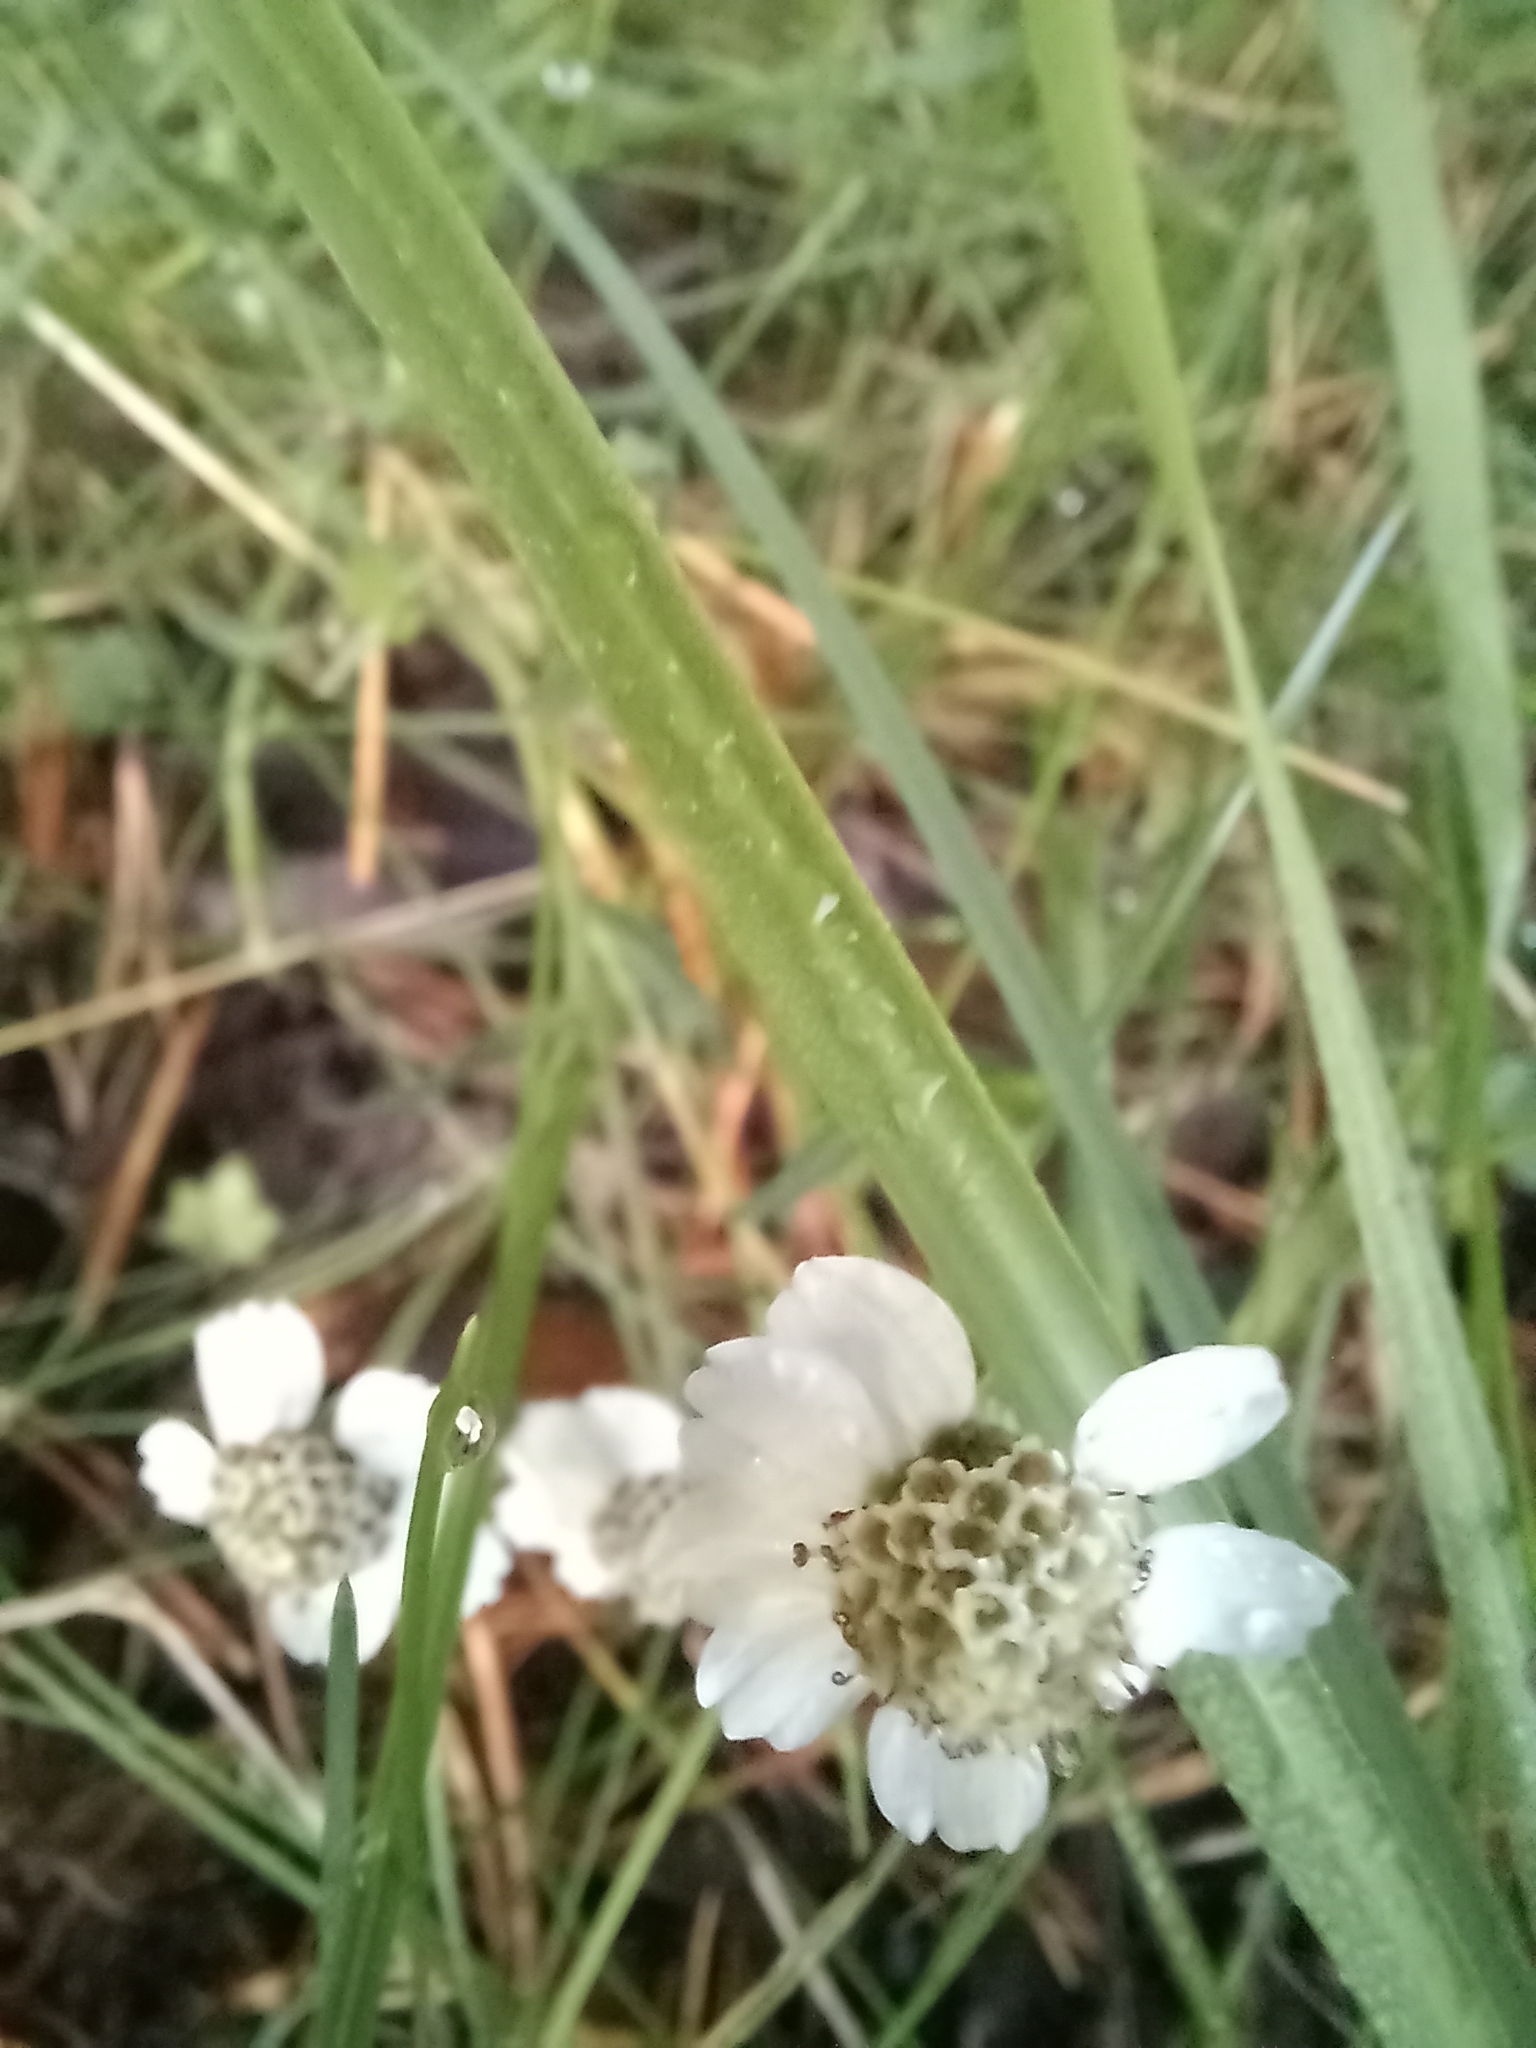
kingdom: Plantae
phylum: Tracheophyta
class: Magnoliopsida
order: Asterales
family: Asteraceae
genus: Achillea
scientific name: Achillea ptarmica
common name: Sneezeweed
